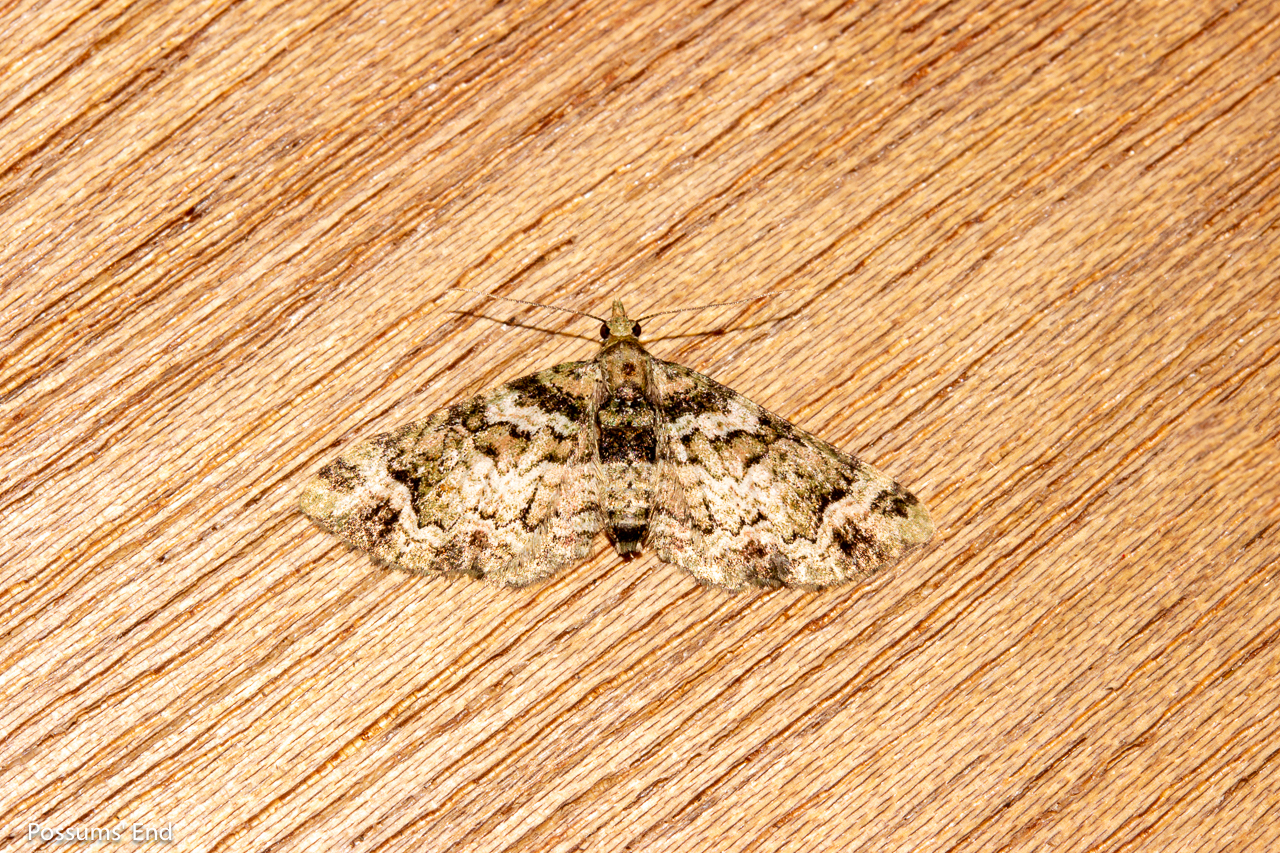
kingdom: Animalia
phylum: Arthropoda
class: Insecta
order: Lepidoptera
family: Geometridae
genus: Pasiphila
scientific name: Pasiphila urticae
